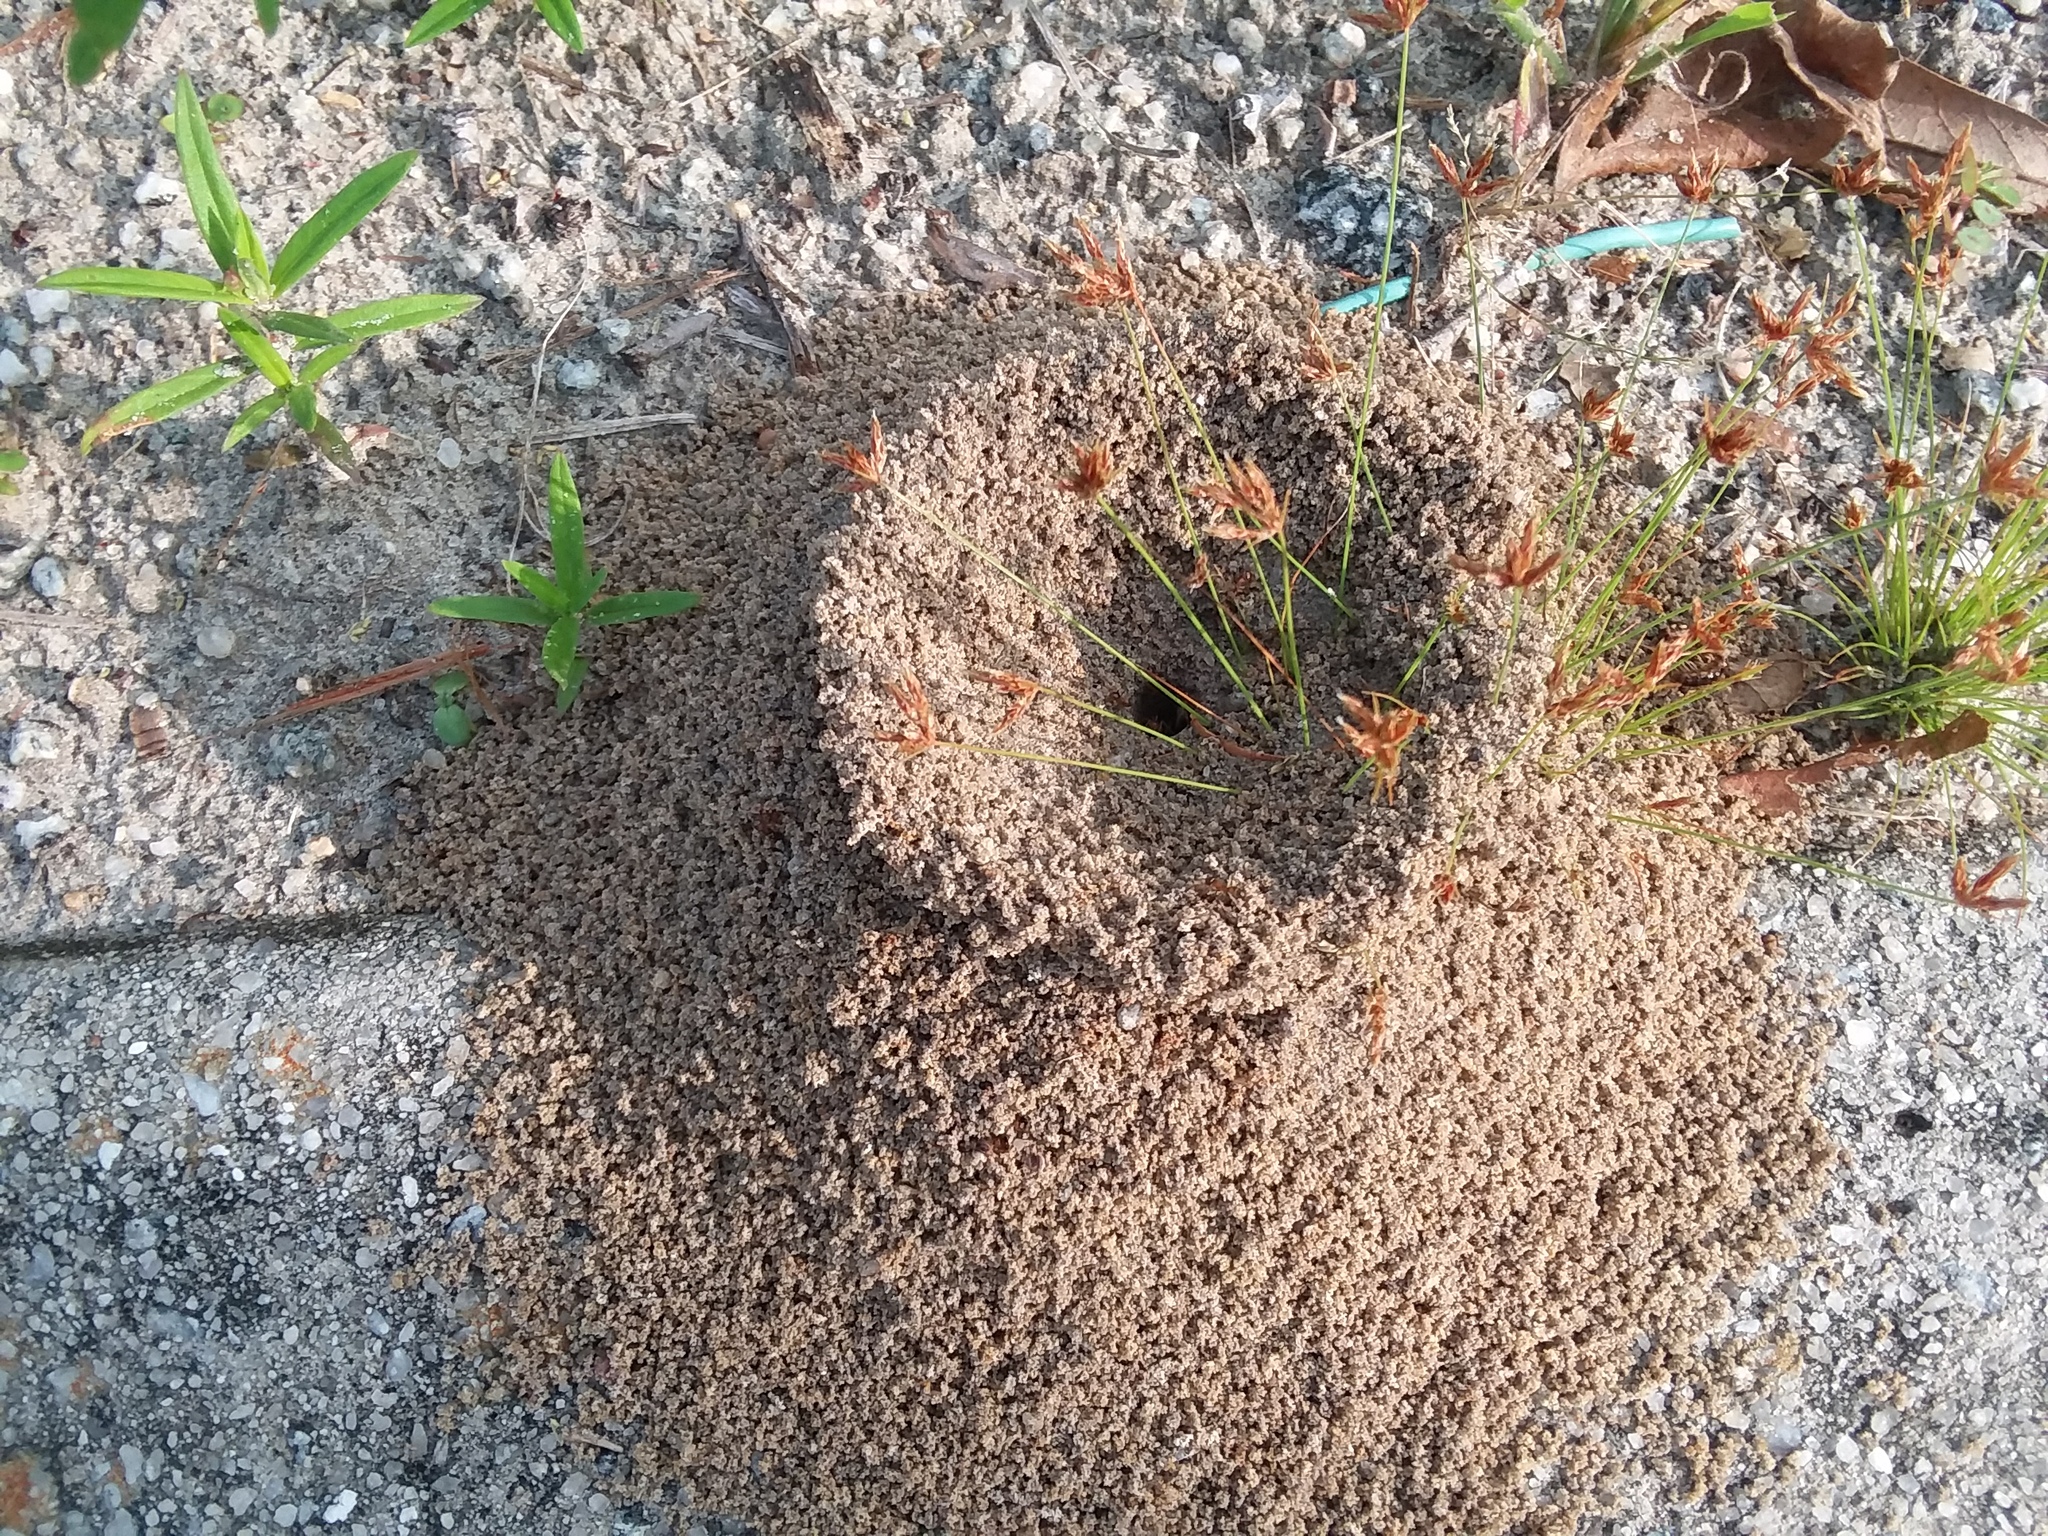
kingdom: Animalia
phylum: Arthropoda
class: Insecta
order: Hymenoptera
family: Formicidae
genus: Dorymyrmex
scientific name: Dorymyrmex bureni
